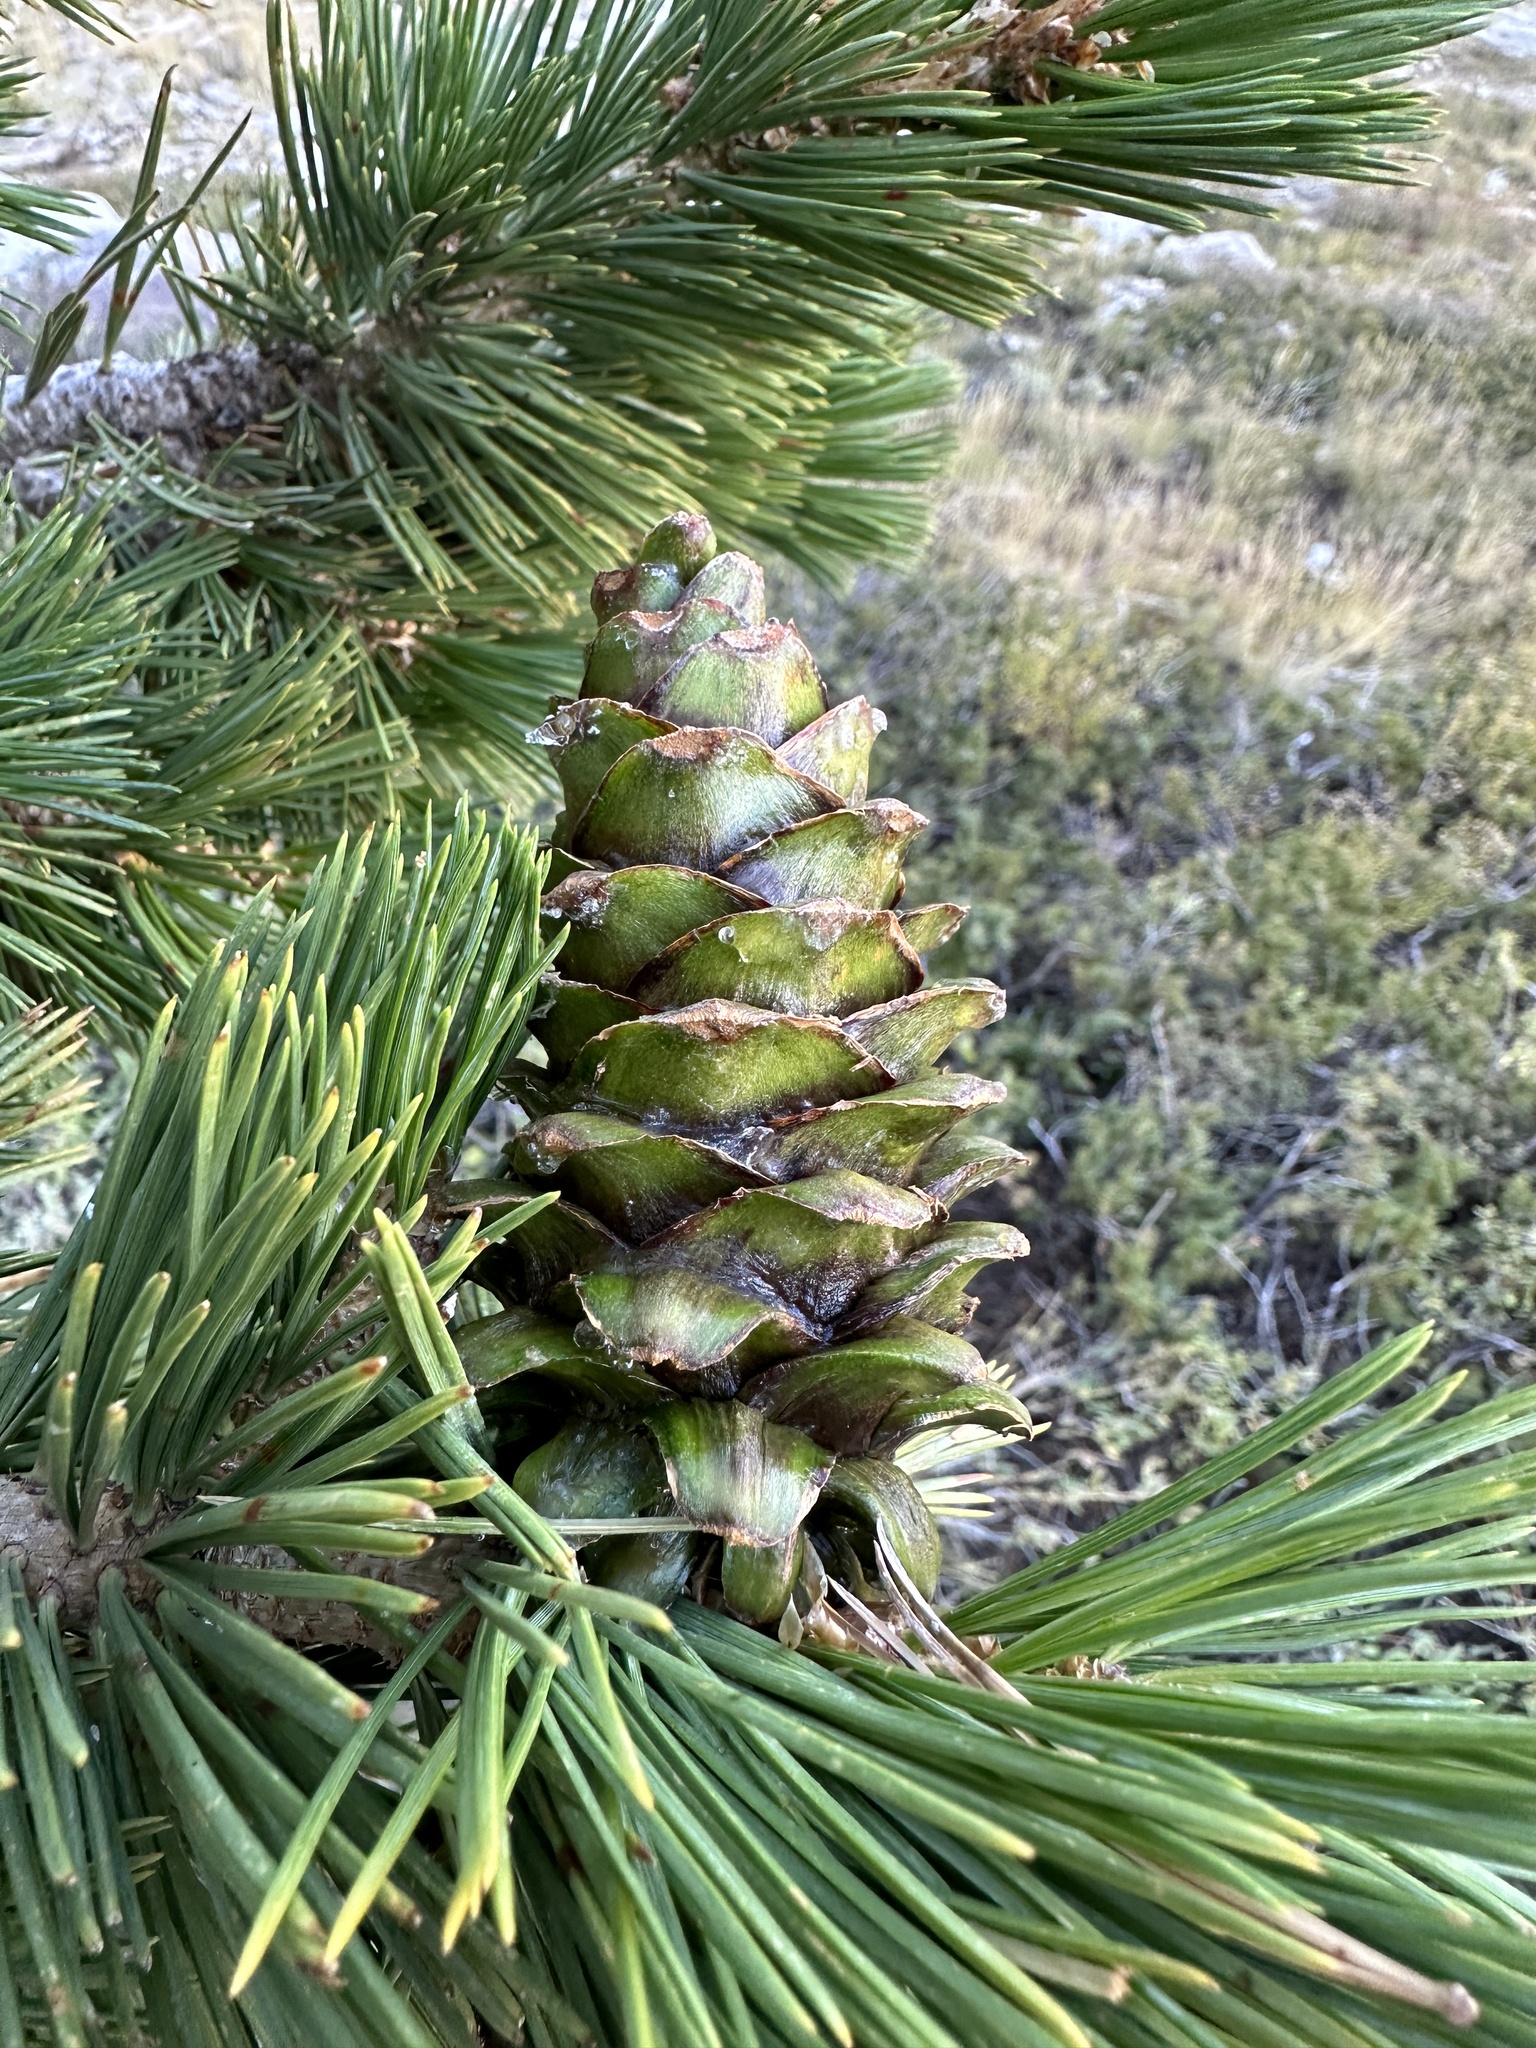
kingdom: Plantae
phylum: Tracheophyta
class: Pinopsida
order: Pinales
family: Pinaceae
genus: Pinus
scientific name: Pinus flexilis
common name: Limber pine
